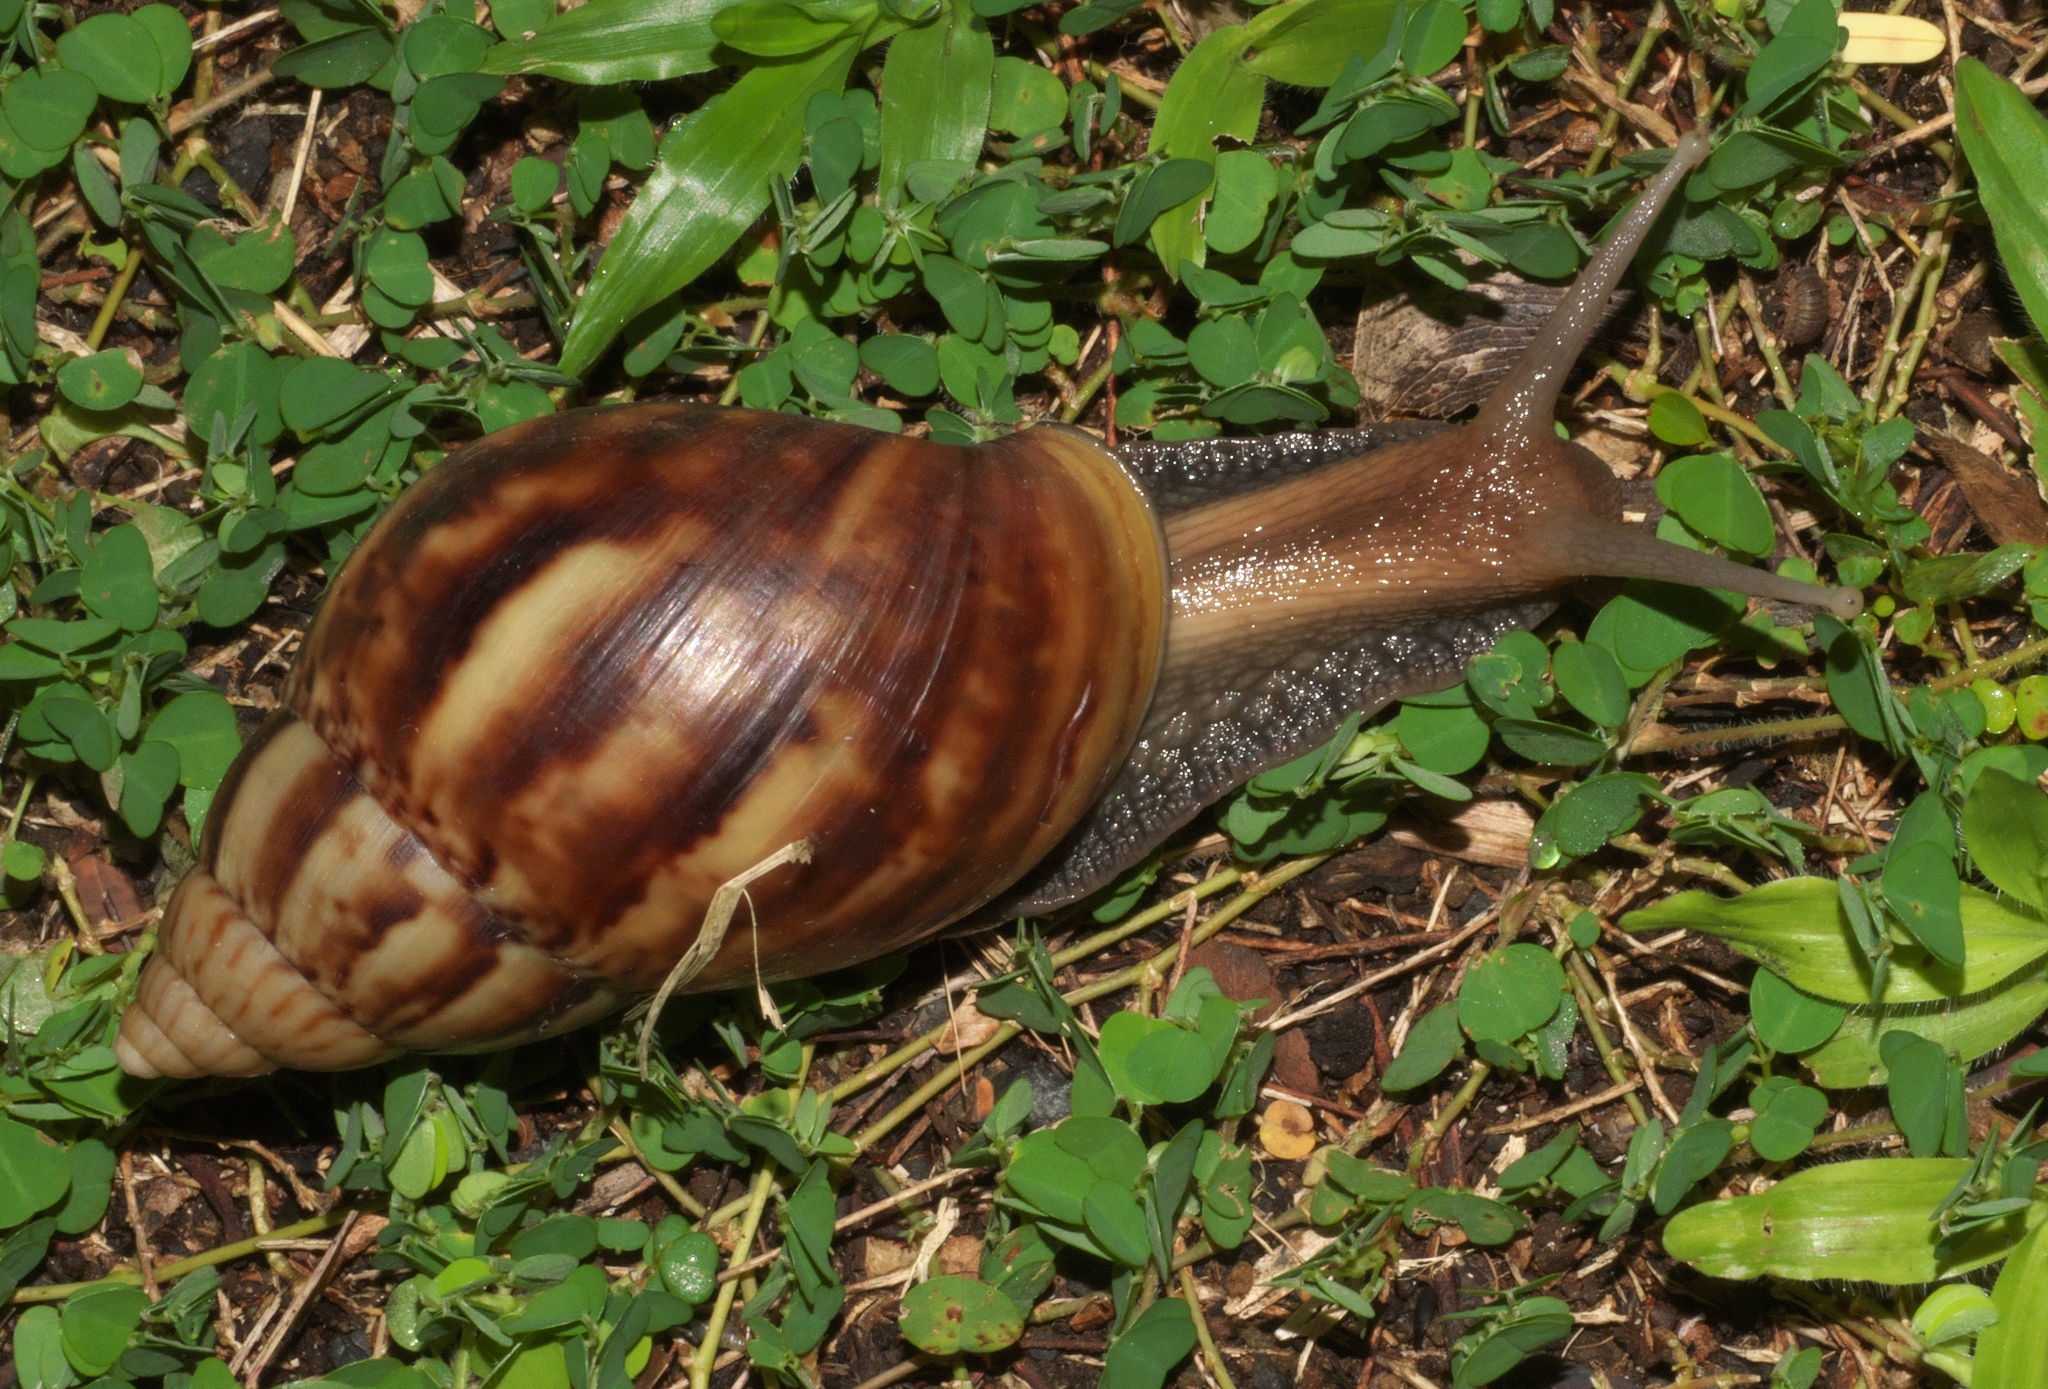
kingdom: Animalia
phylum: Mollusca
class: Gastropoda
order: Stylommatophora
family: Achatinidae
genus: Lissachatina
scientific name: Lissachatina fulica
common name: Giant african snail
